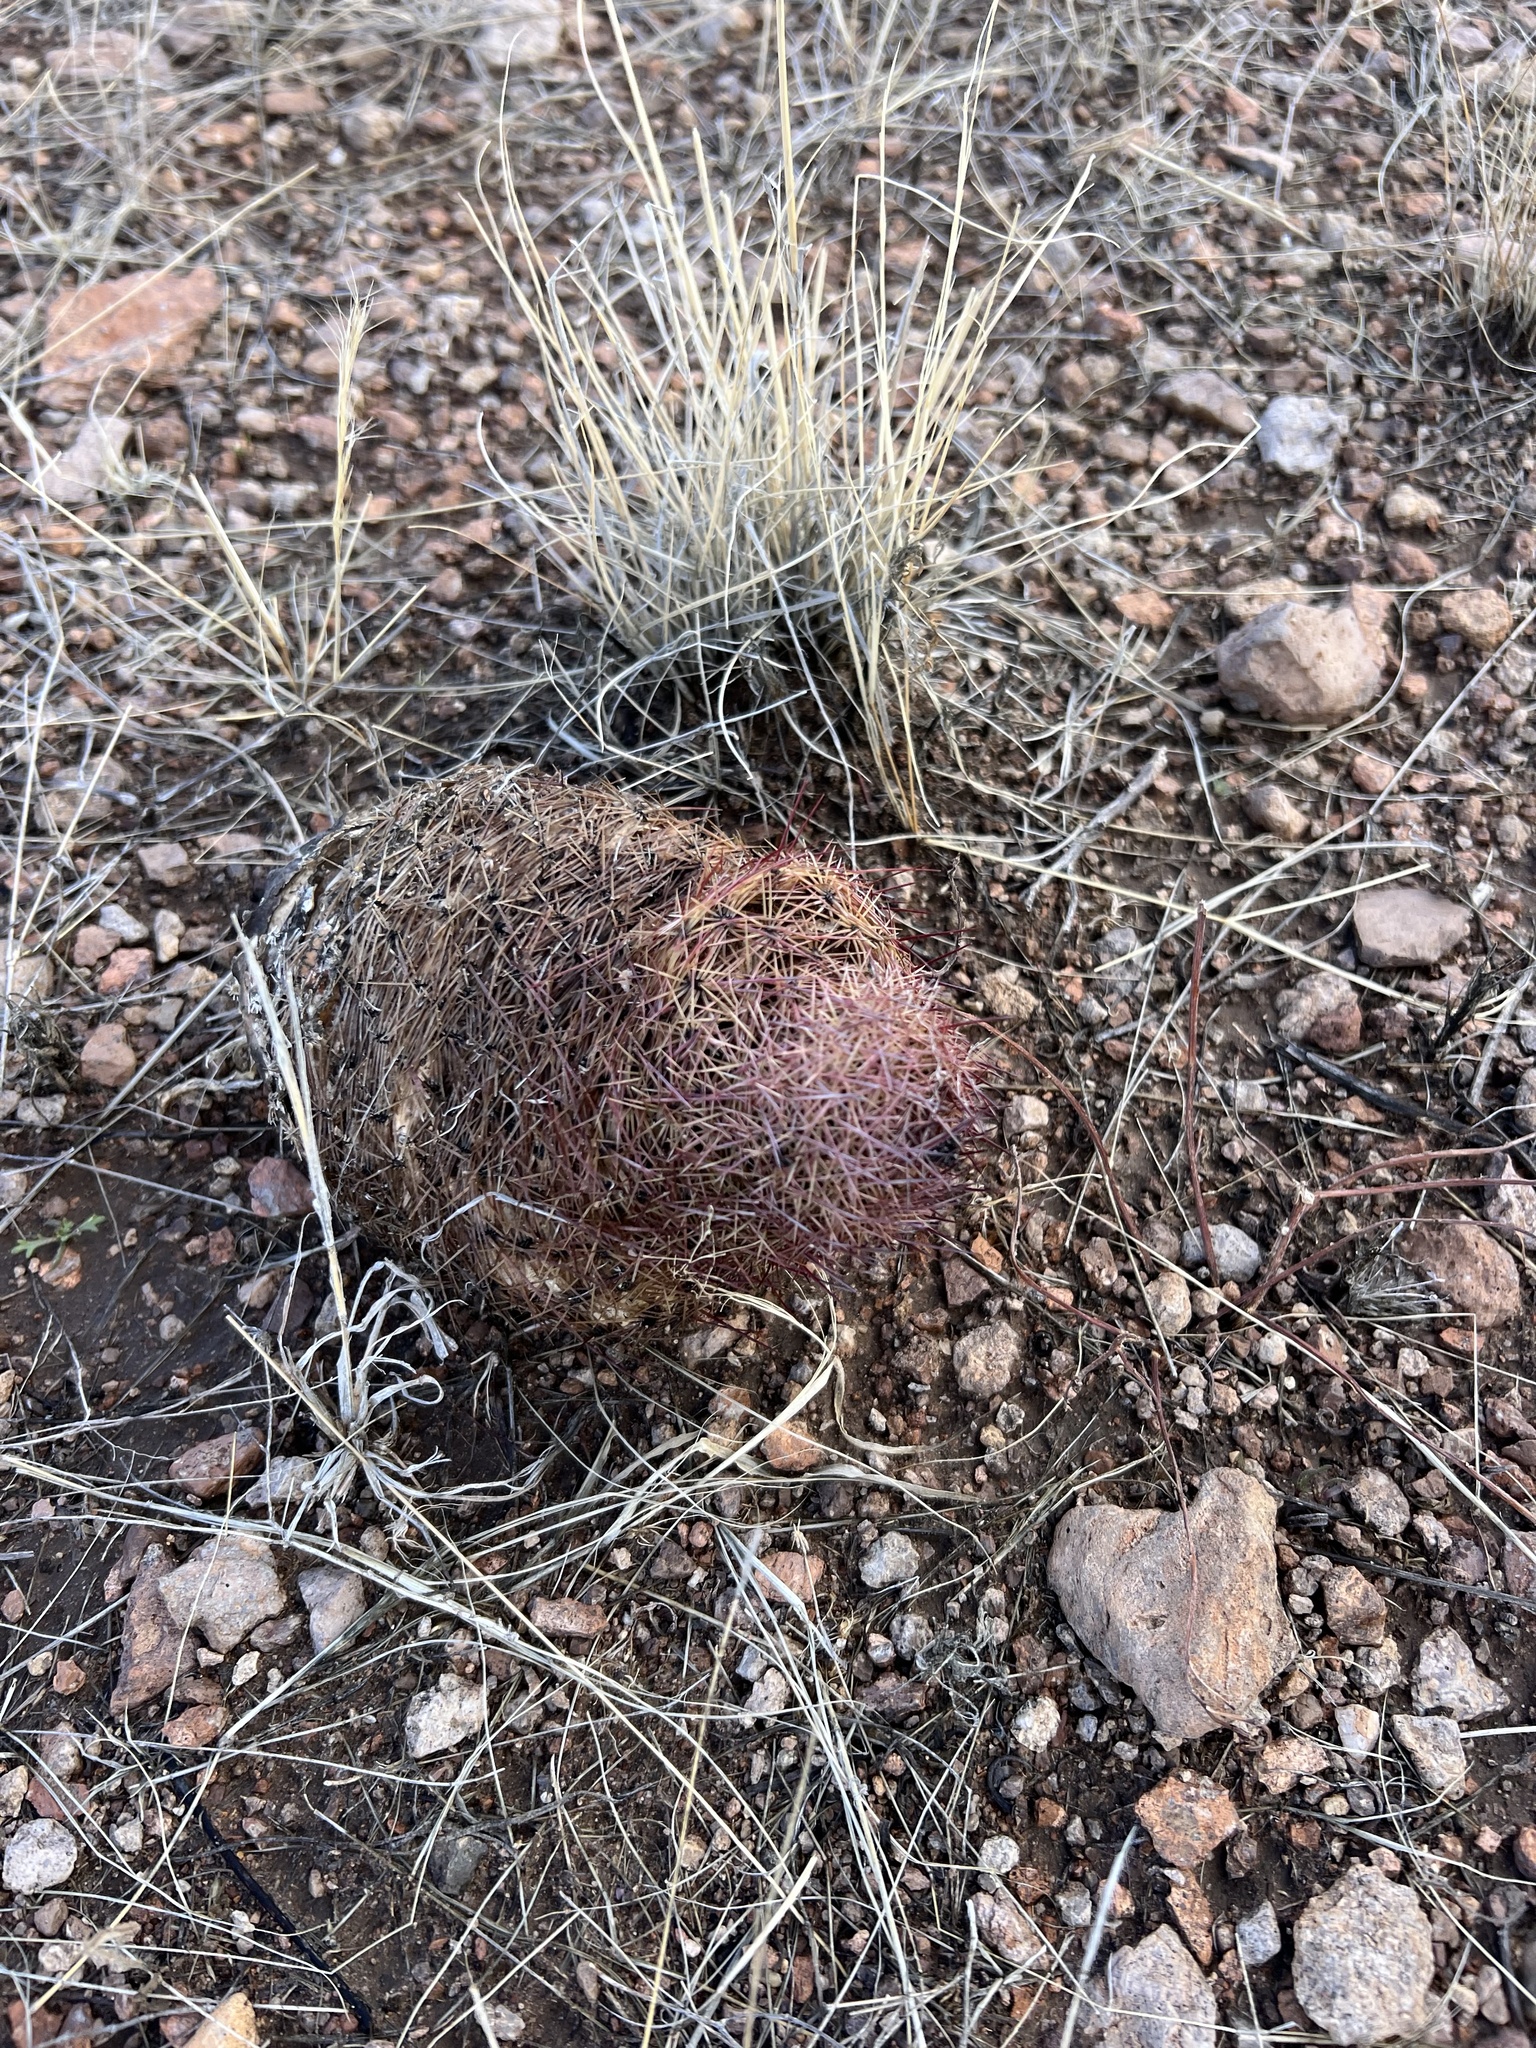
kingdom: Plantae
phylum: Tracheophyta
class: Magnoliopsida
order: Caryophyllales
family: Cactaceae
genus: Sclerocactus
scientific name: Sclerocactus johnsonii
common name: Eight-spine fishhook cactus
